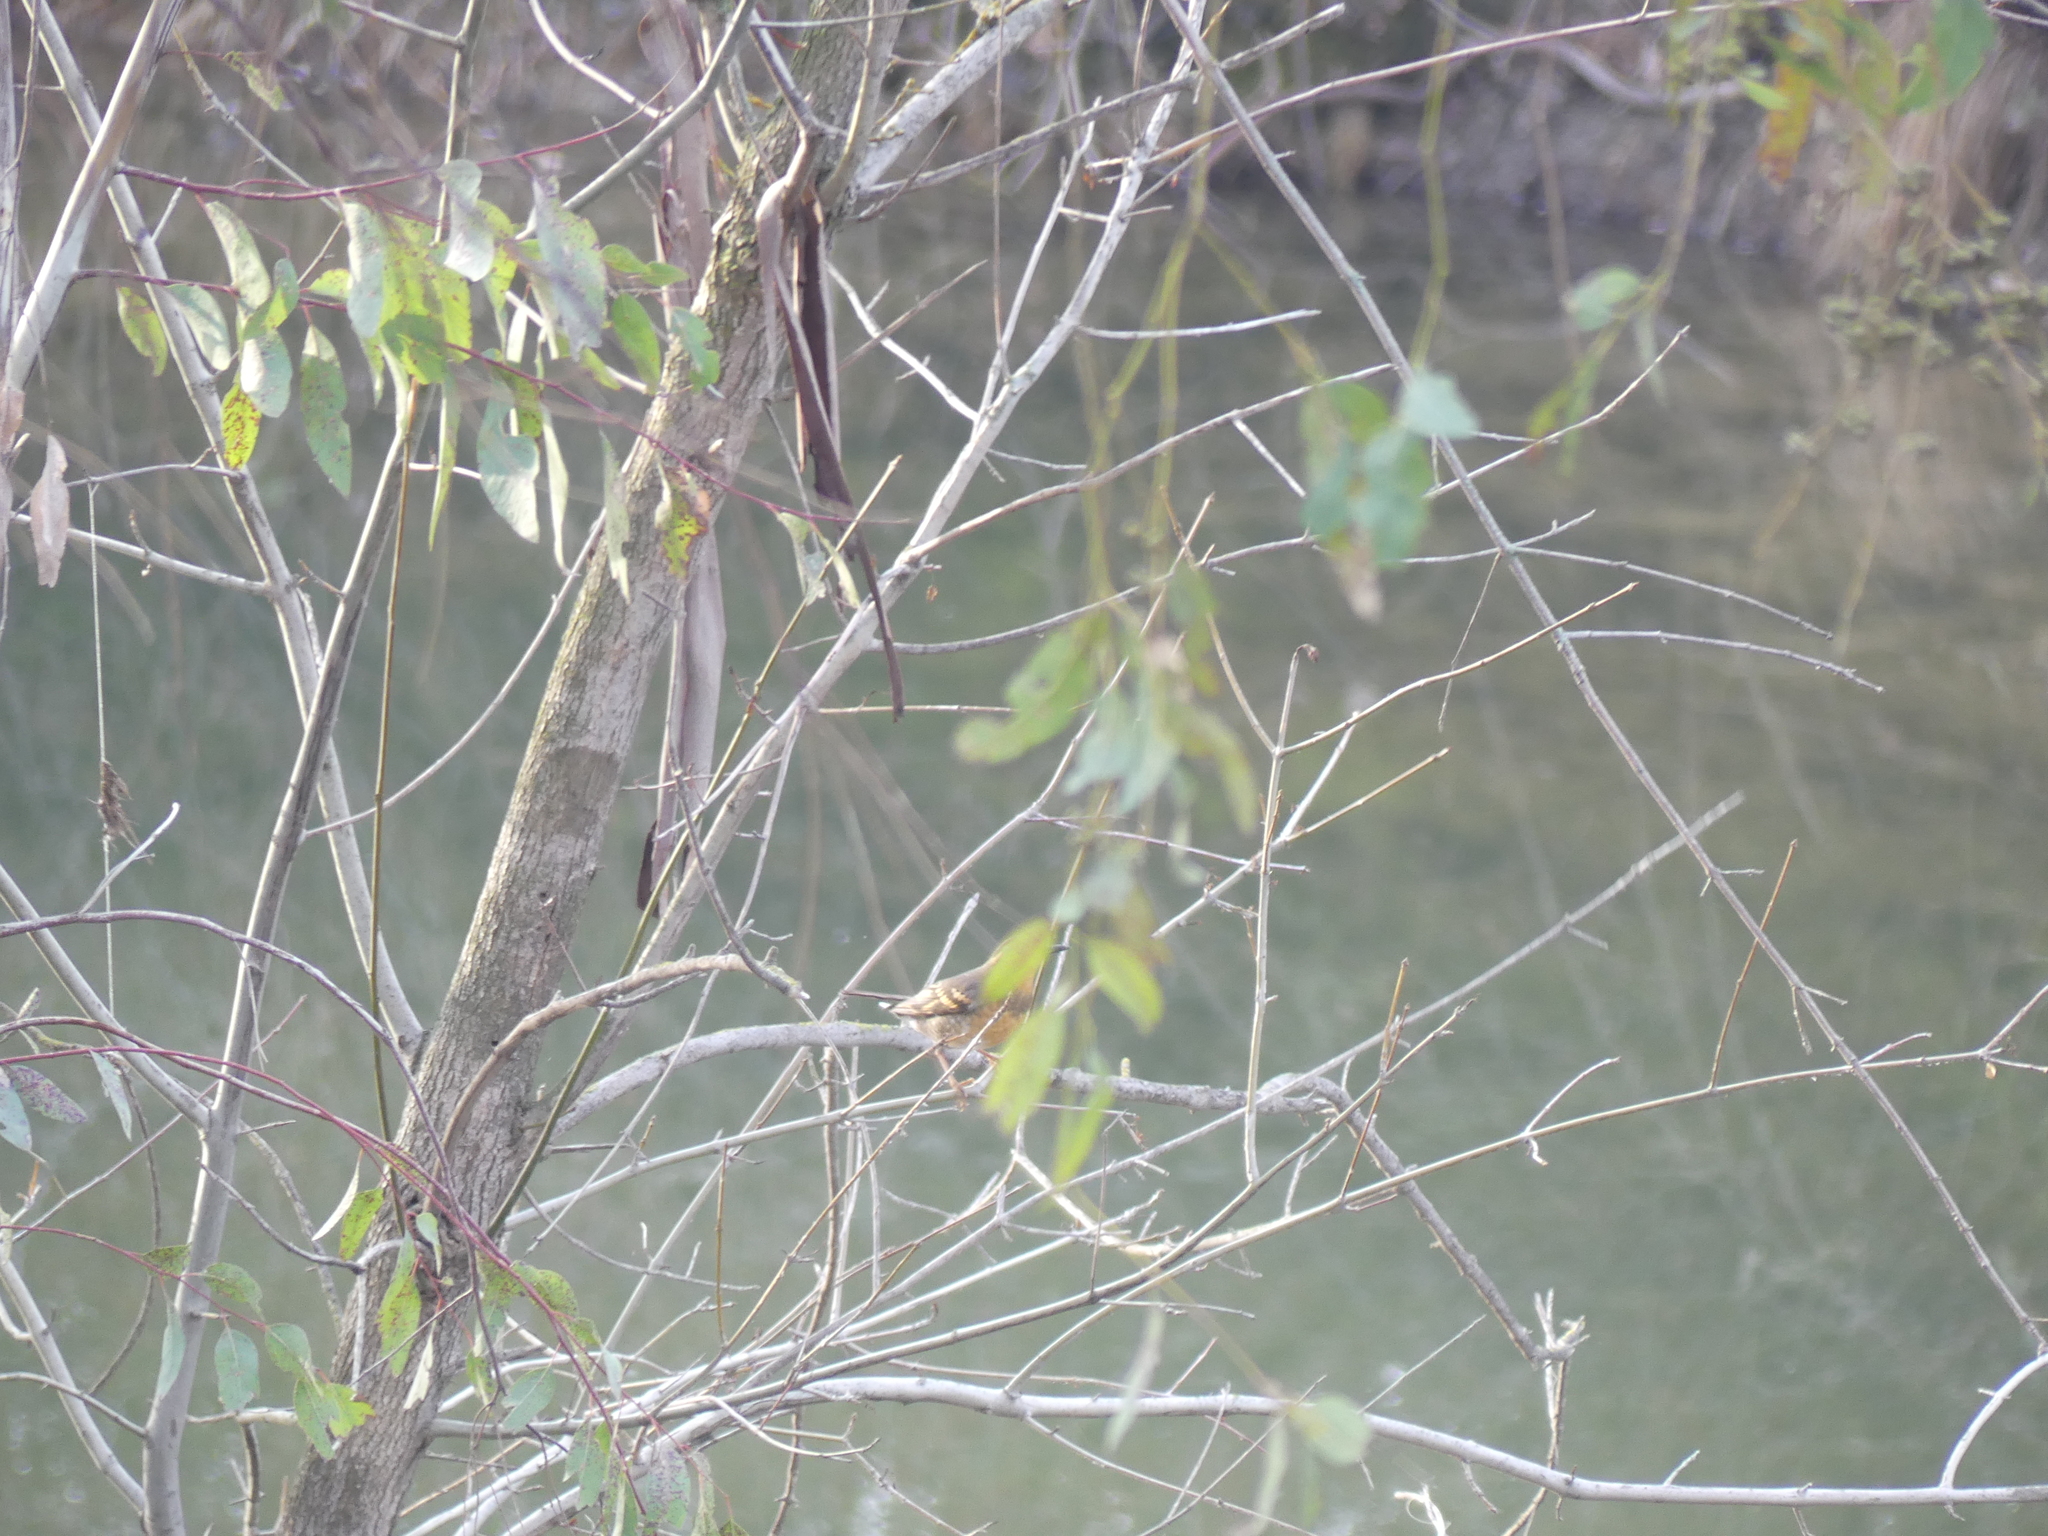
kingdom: Animalia
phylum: Chordata
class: Aves
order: Passeriformes
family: Turdidae
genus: Ixoreus
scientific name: Ixoreus naevius
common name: Varied thrush
